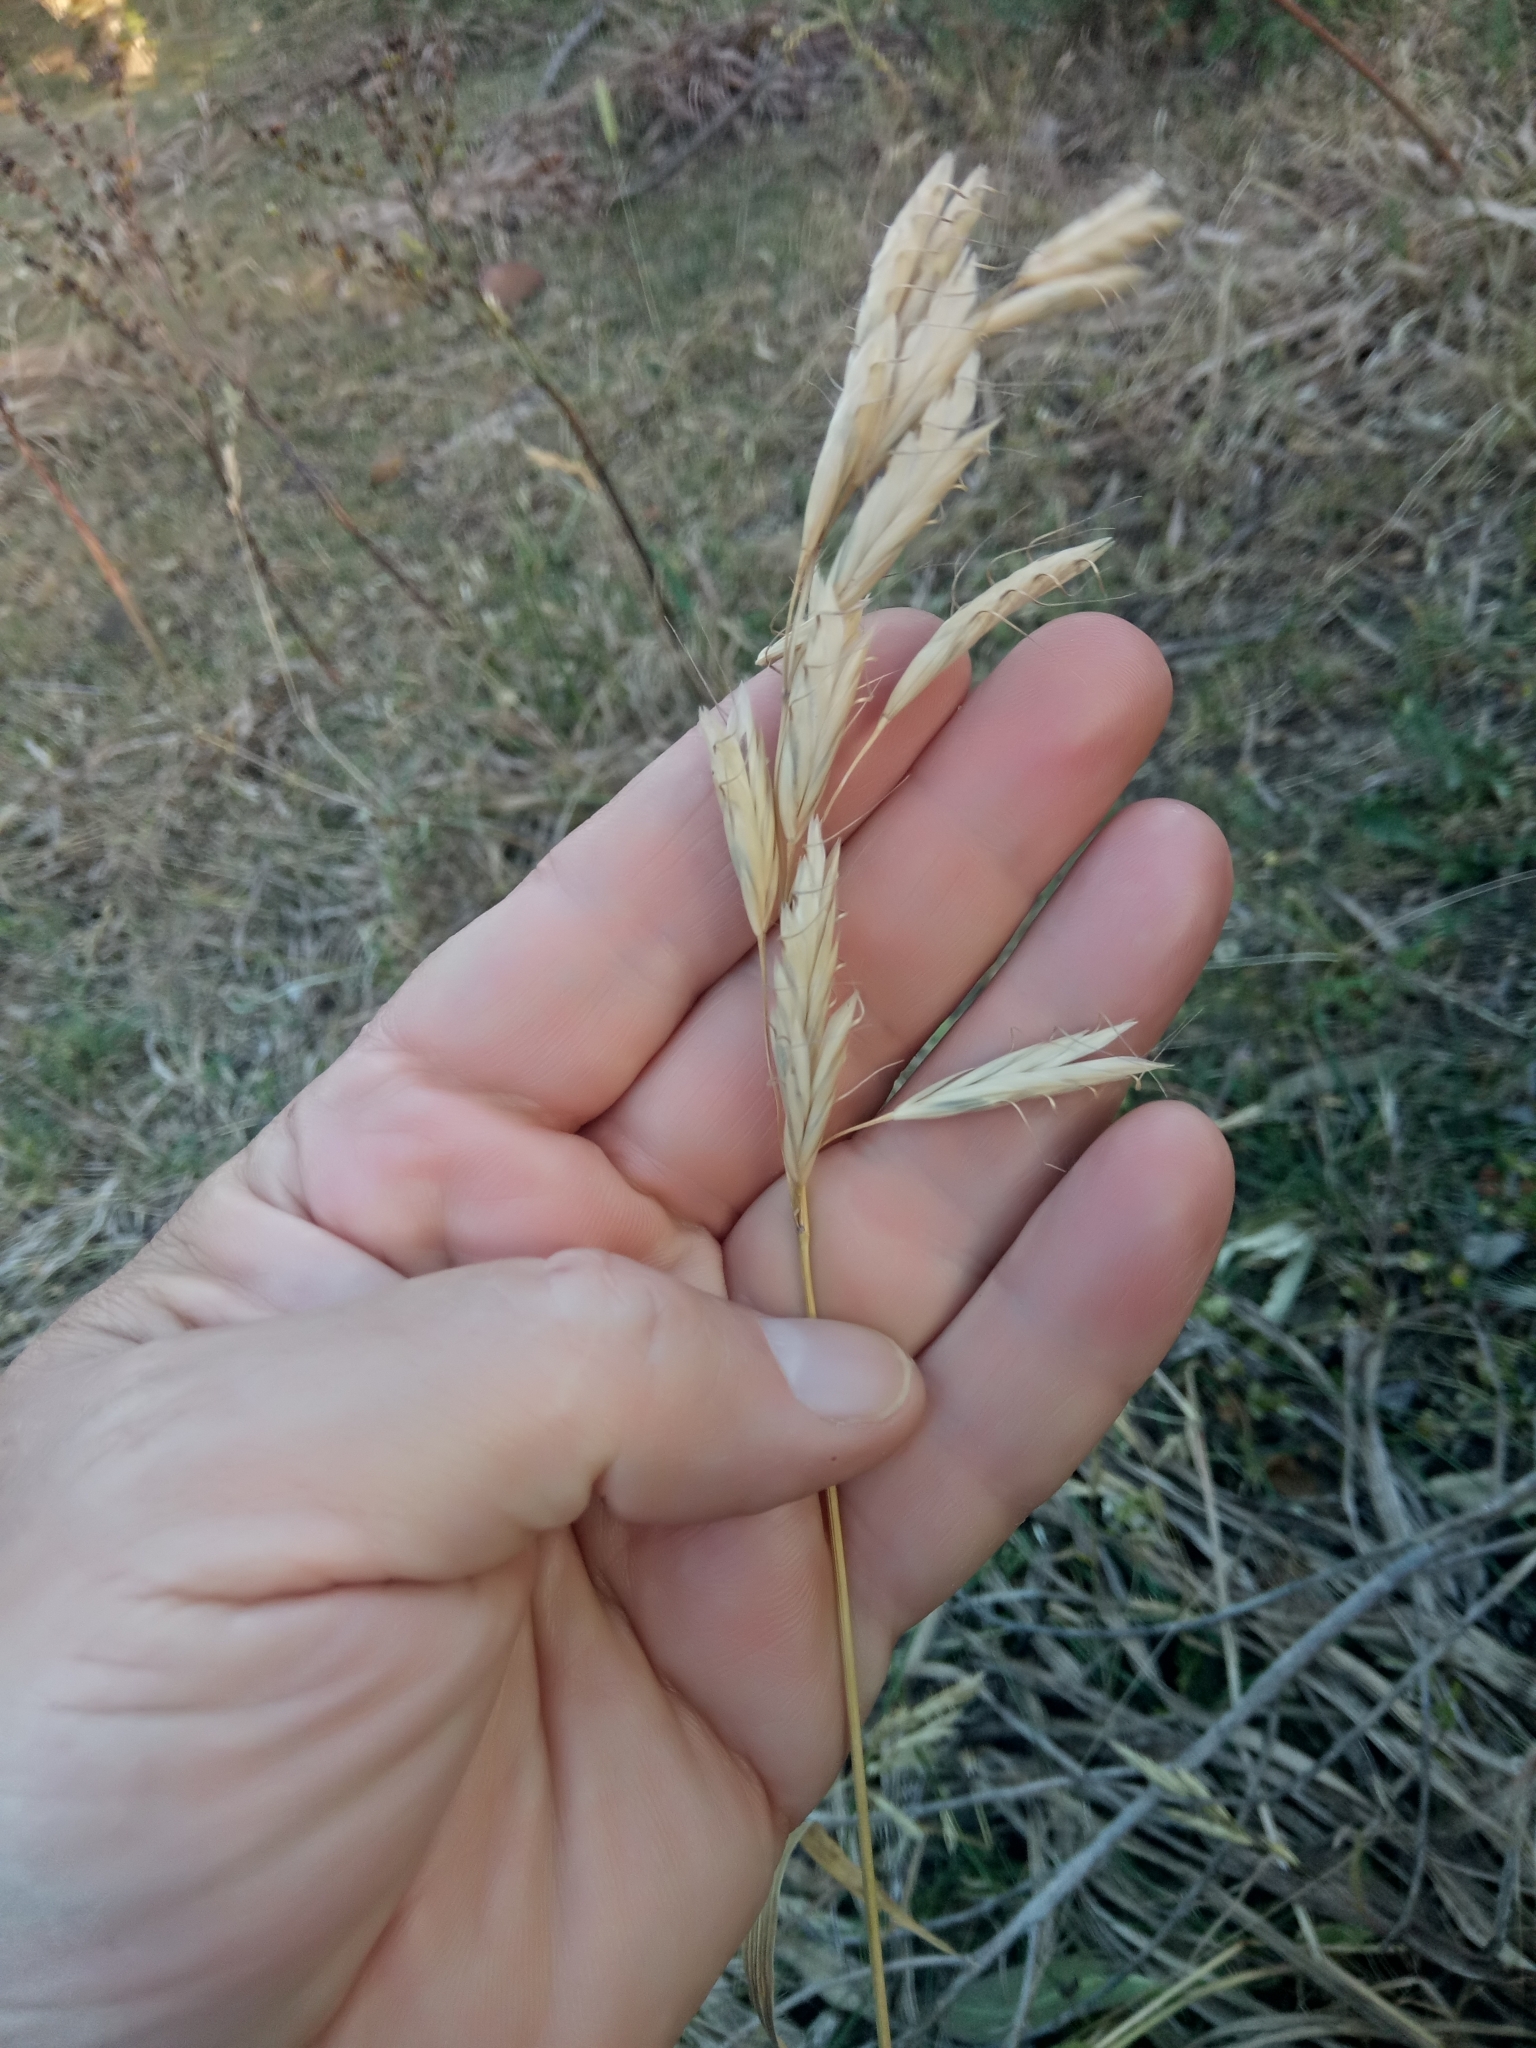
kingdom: Plantae
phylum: Tracheophyta
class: Liliopsida
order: Poales
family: Poaceae
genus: Bromus
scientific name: Bromus lanceolatus
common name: Mediterranean brome
